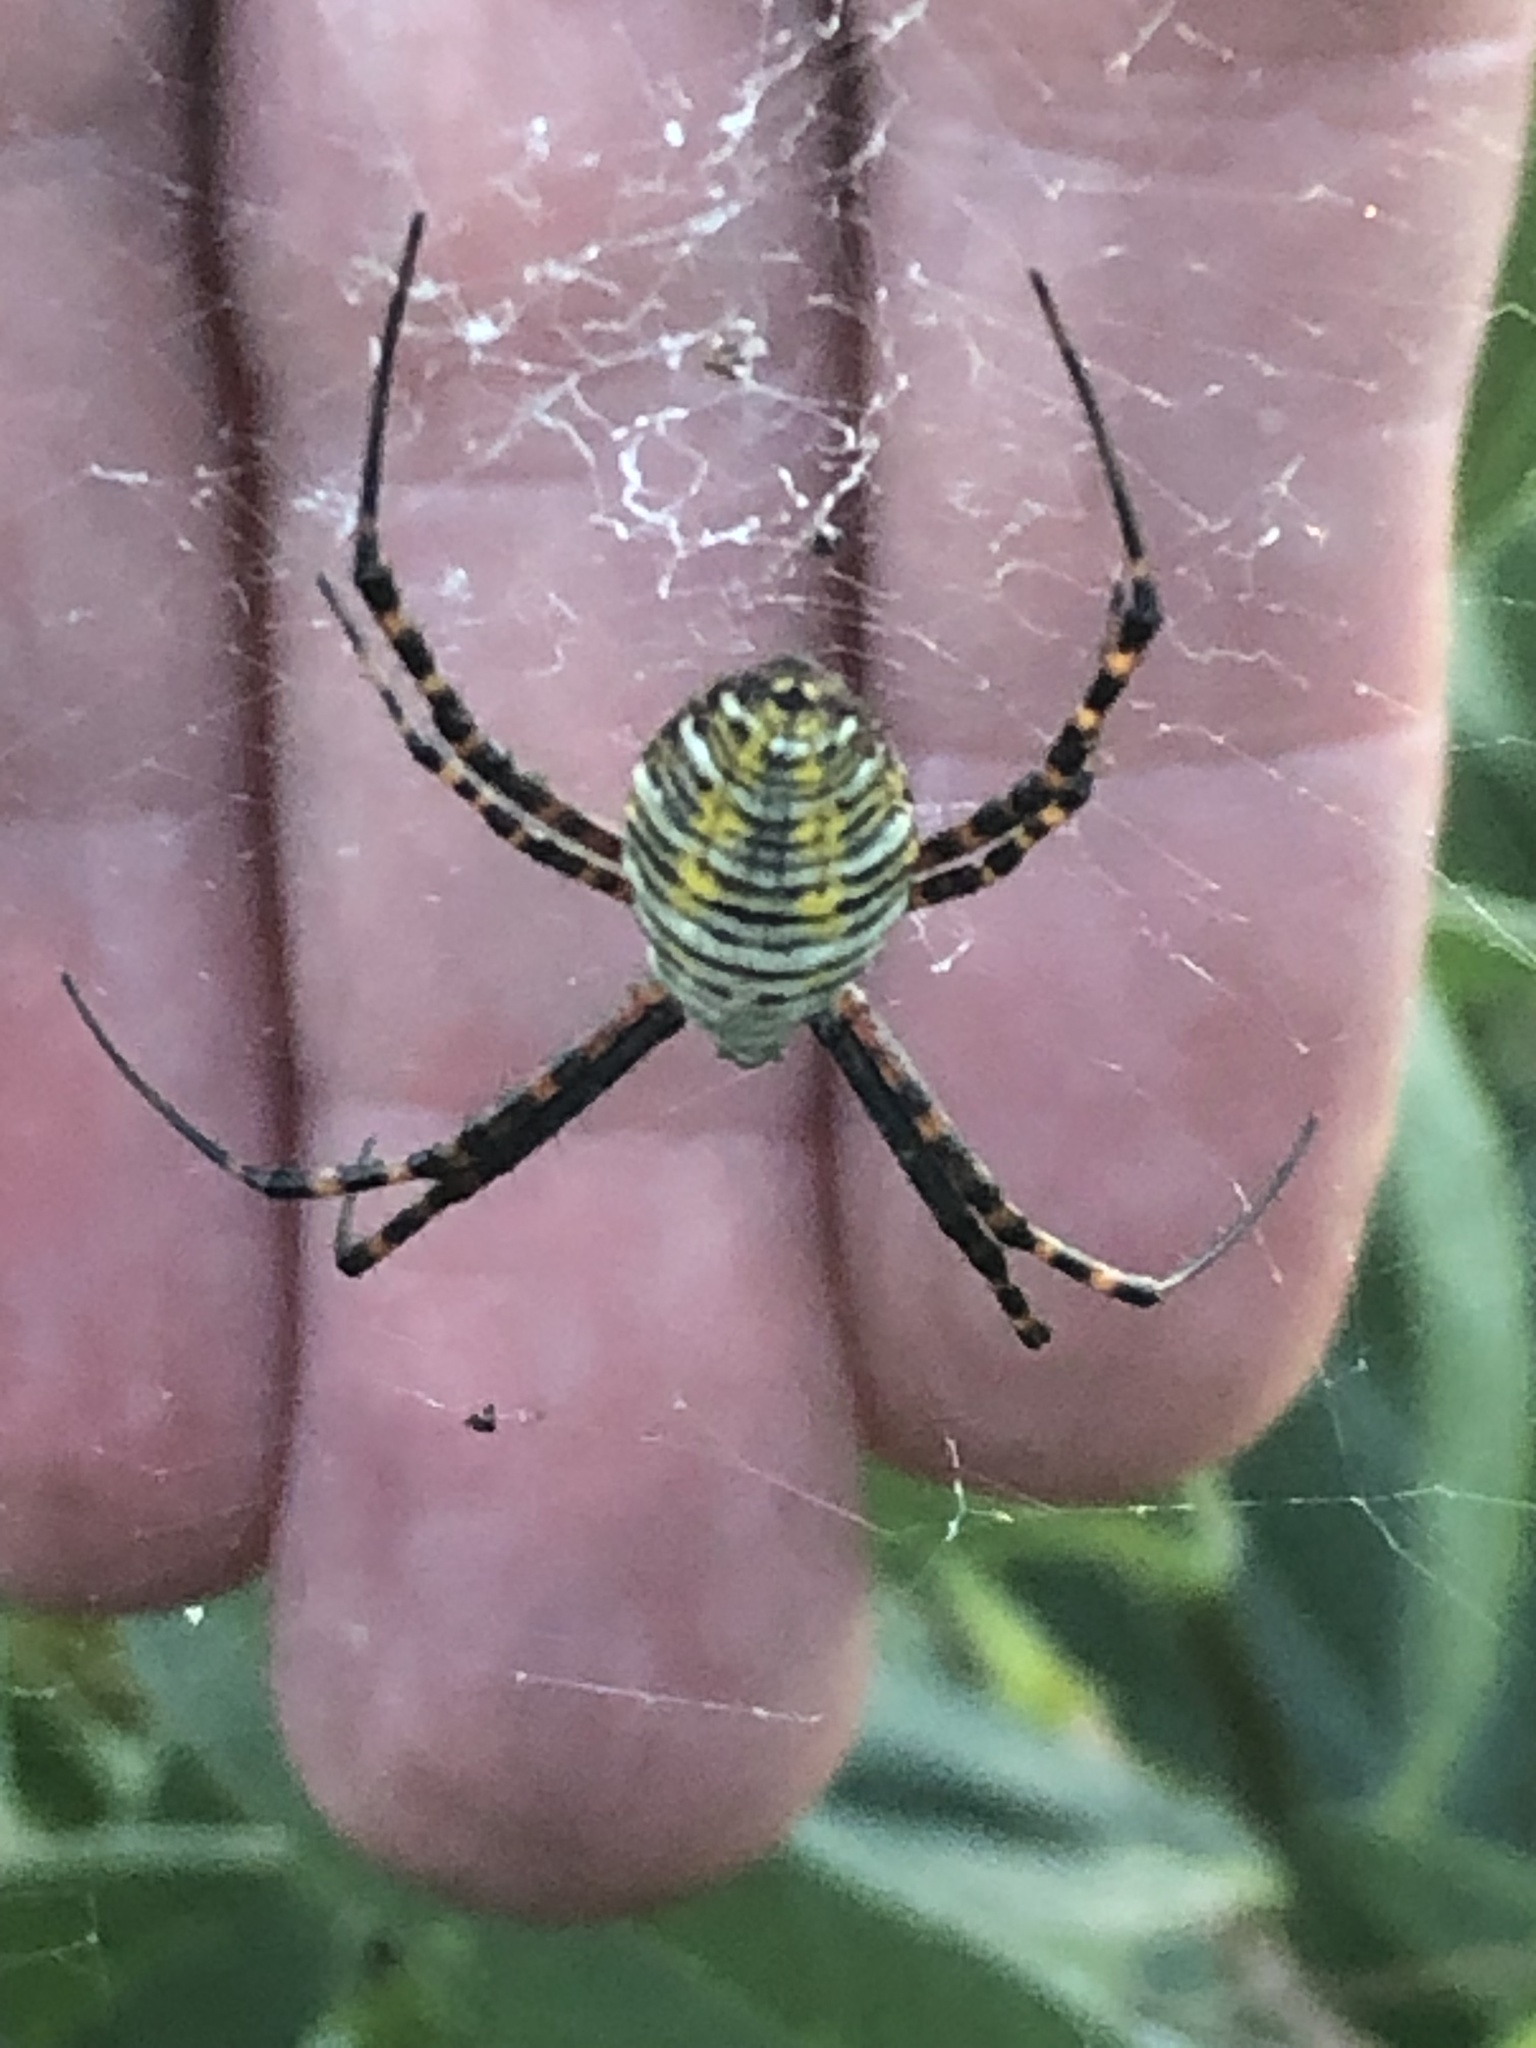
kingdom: Animalia
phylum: Arthropoda
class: Arachnida
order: Araneae
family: Araneidae
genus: Argiope
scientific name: Argiope trifasciata
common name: Banded garden spider
